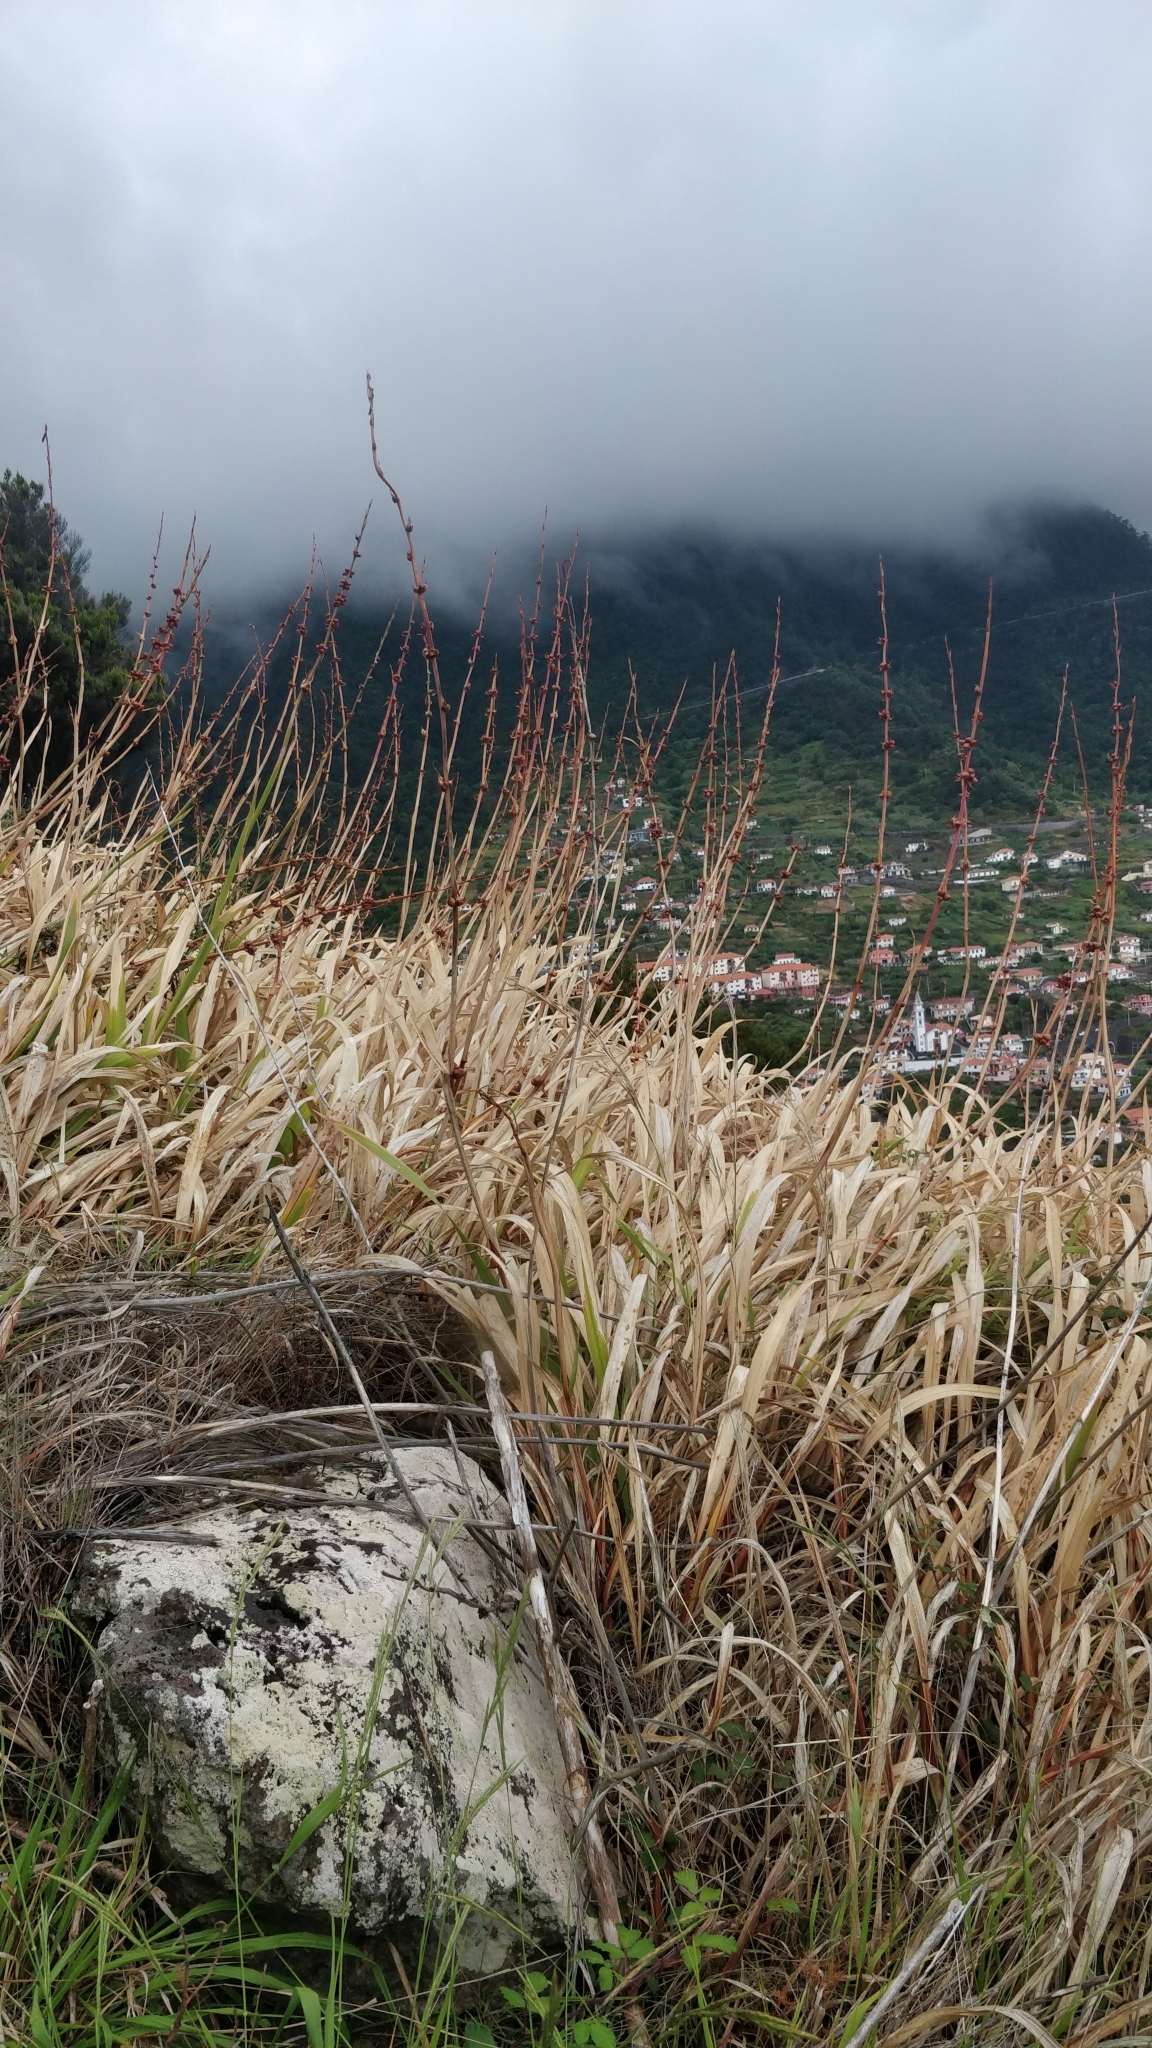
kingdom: Plantae
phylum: Tracheophyta
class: Liliopsida
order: Asparagales
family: Iridaceae
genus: Watsonia
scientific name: Watsonia meriana
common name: Bulbil bugle-lily
